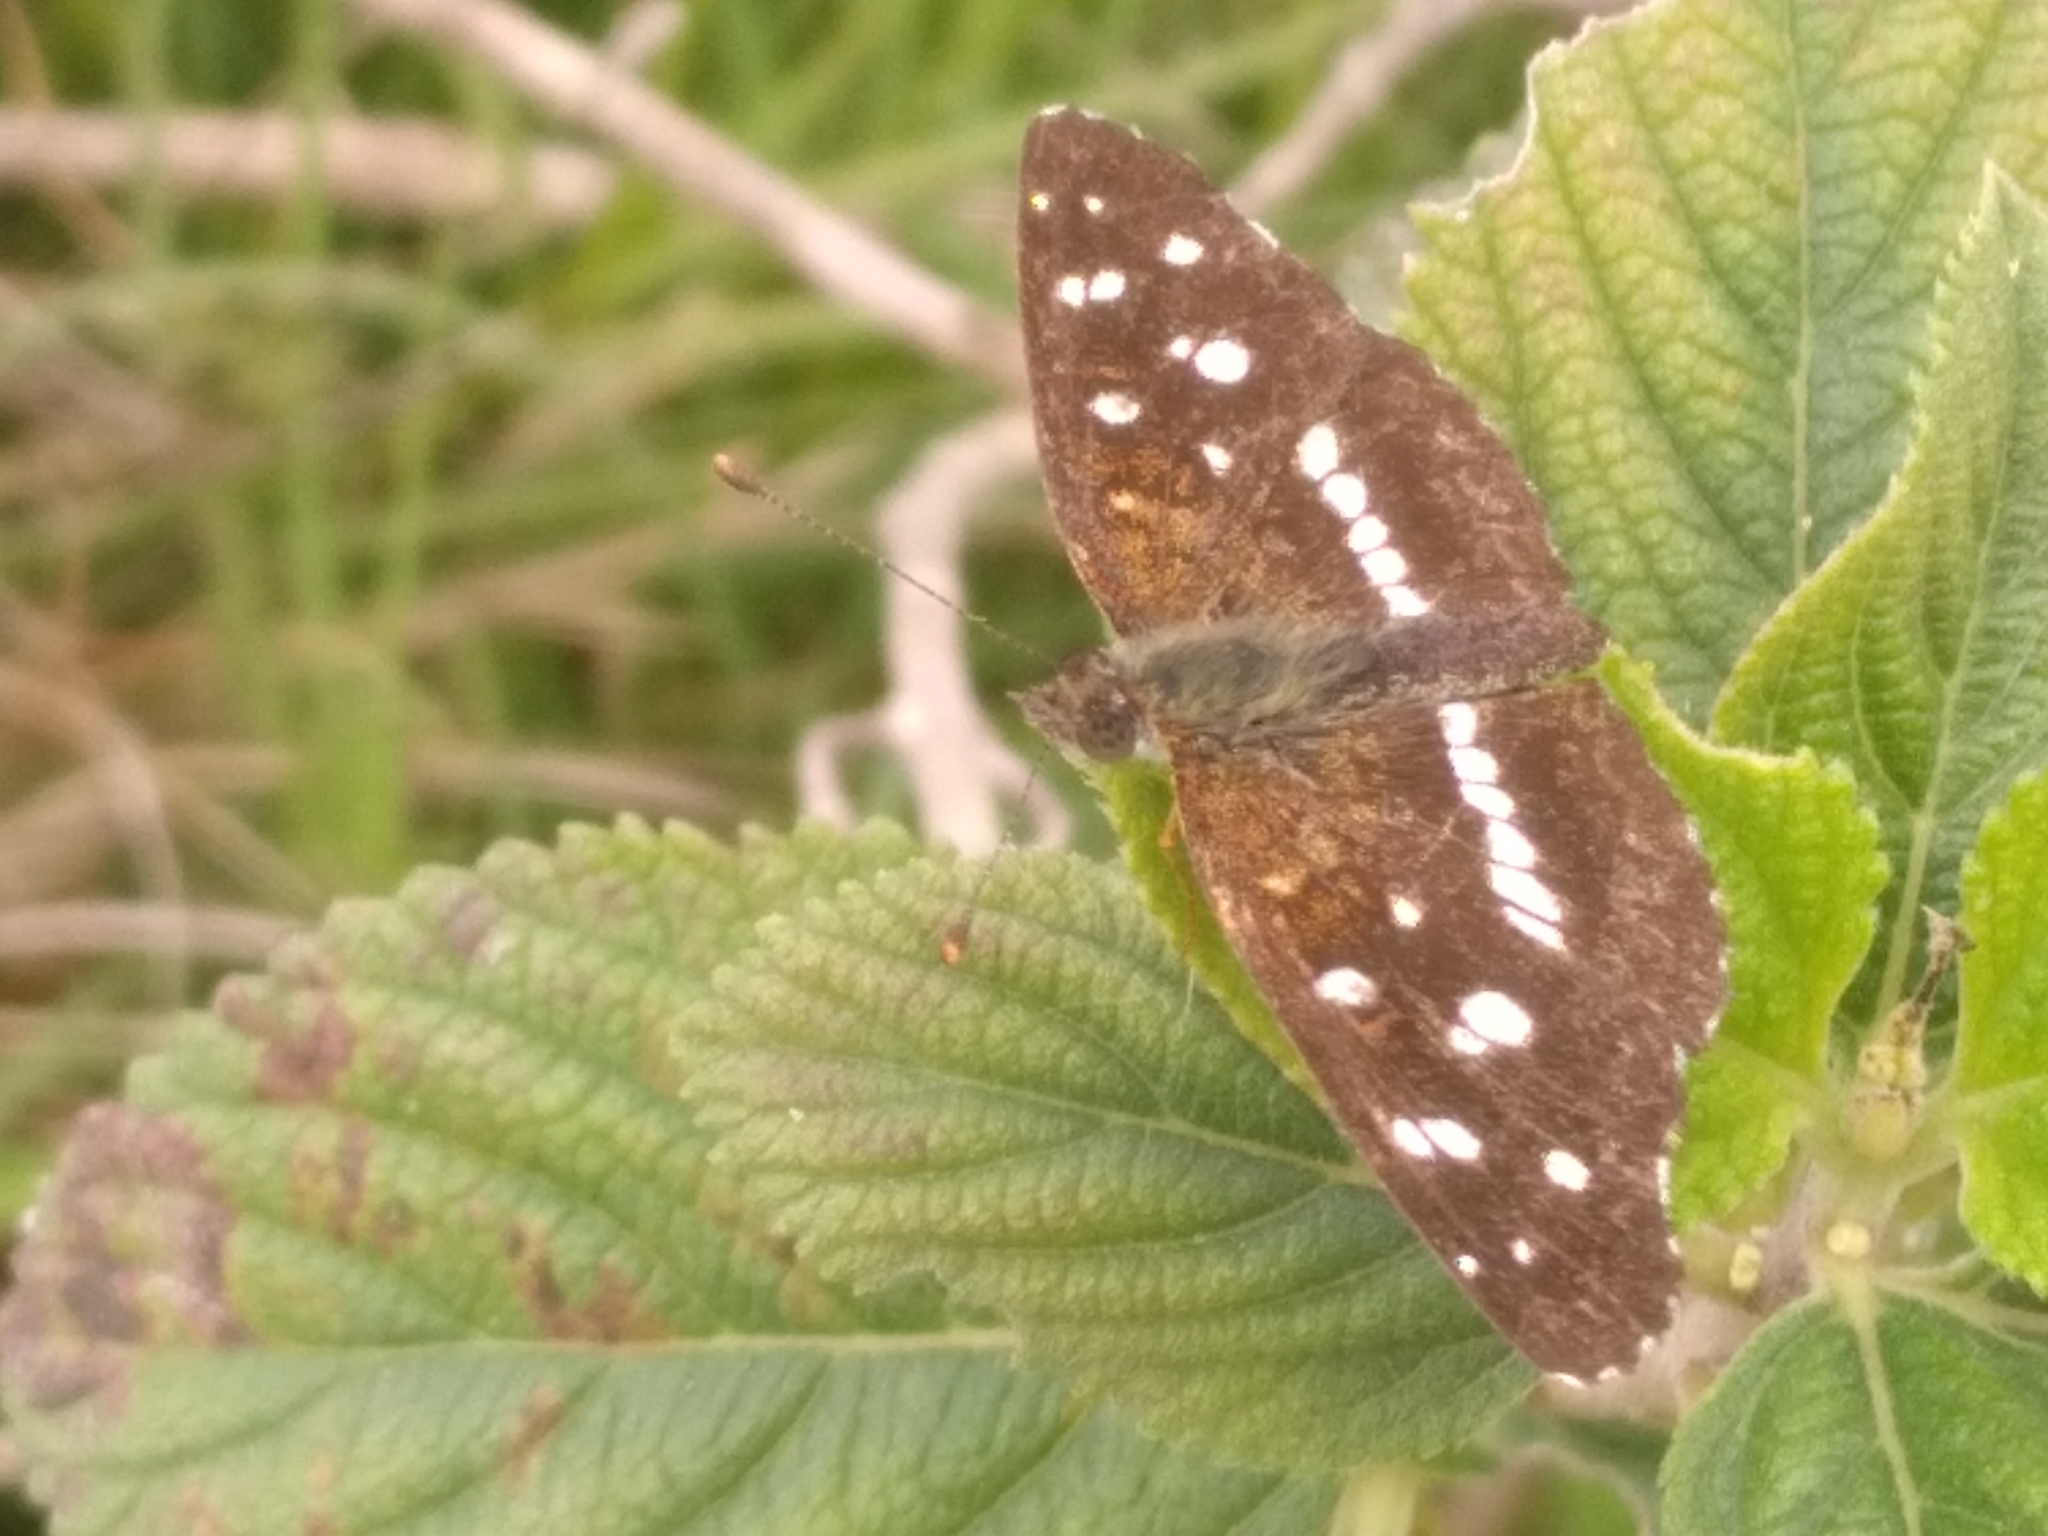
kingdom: Animalia
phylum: Arthropoda
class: Insecta
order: Lepidoptera
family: Nymphalidae
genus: Ortilia
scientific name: Ortilia ithra
